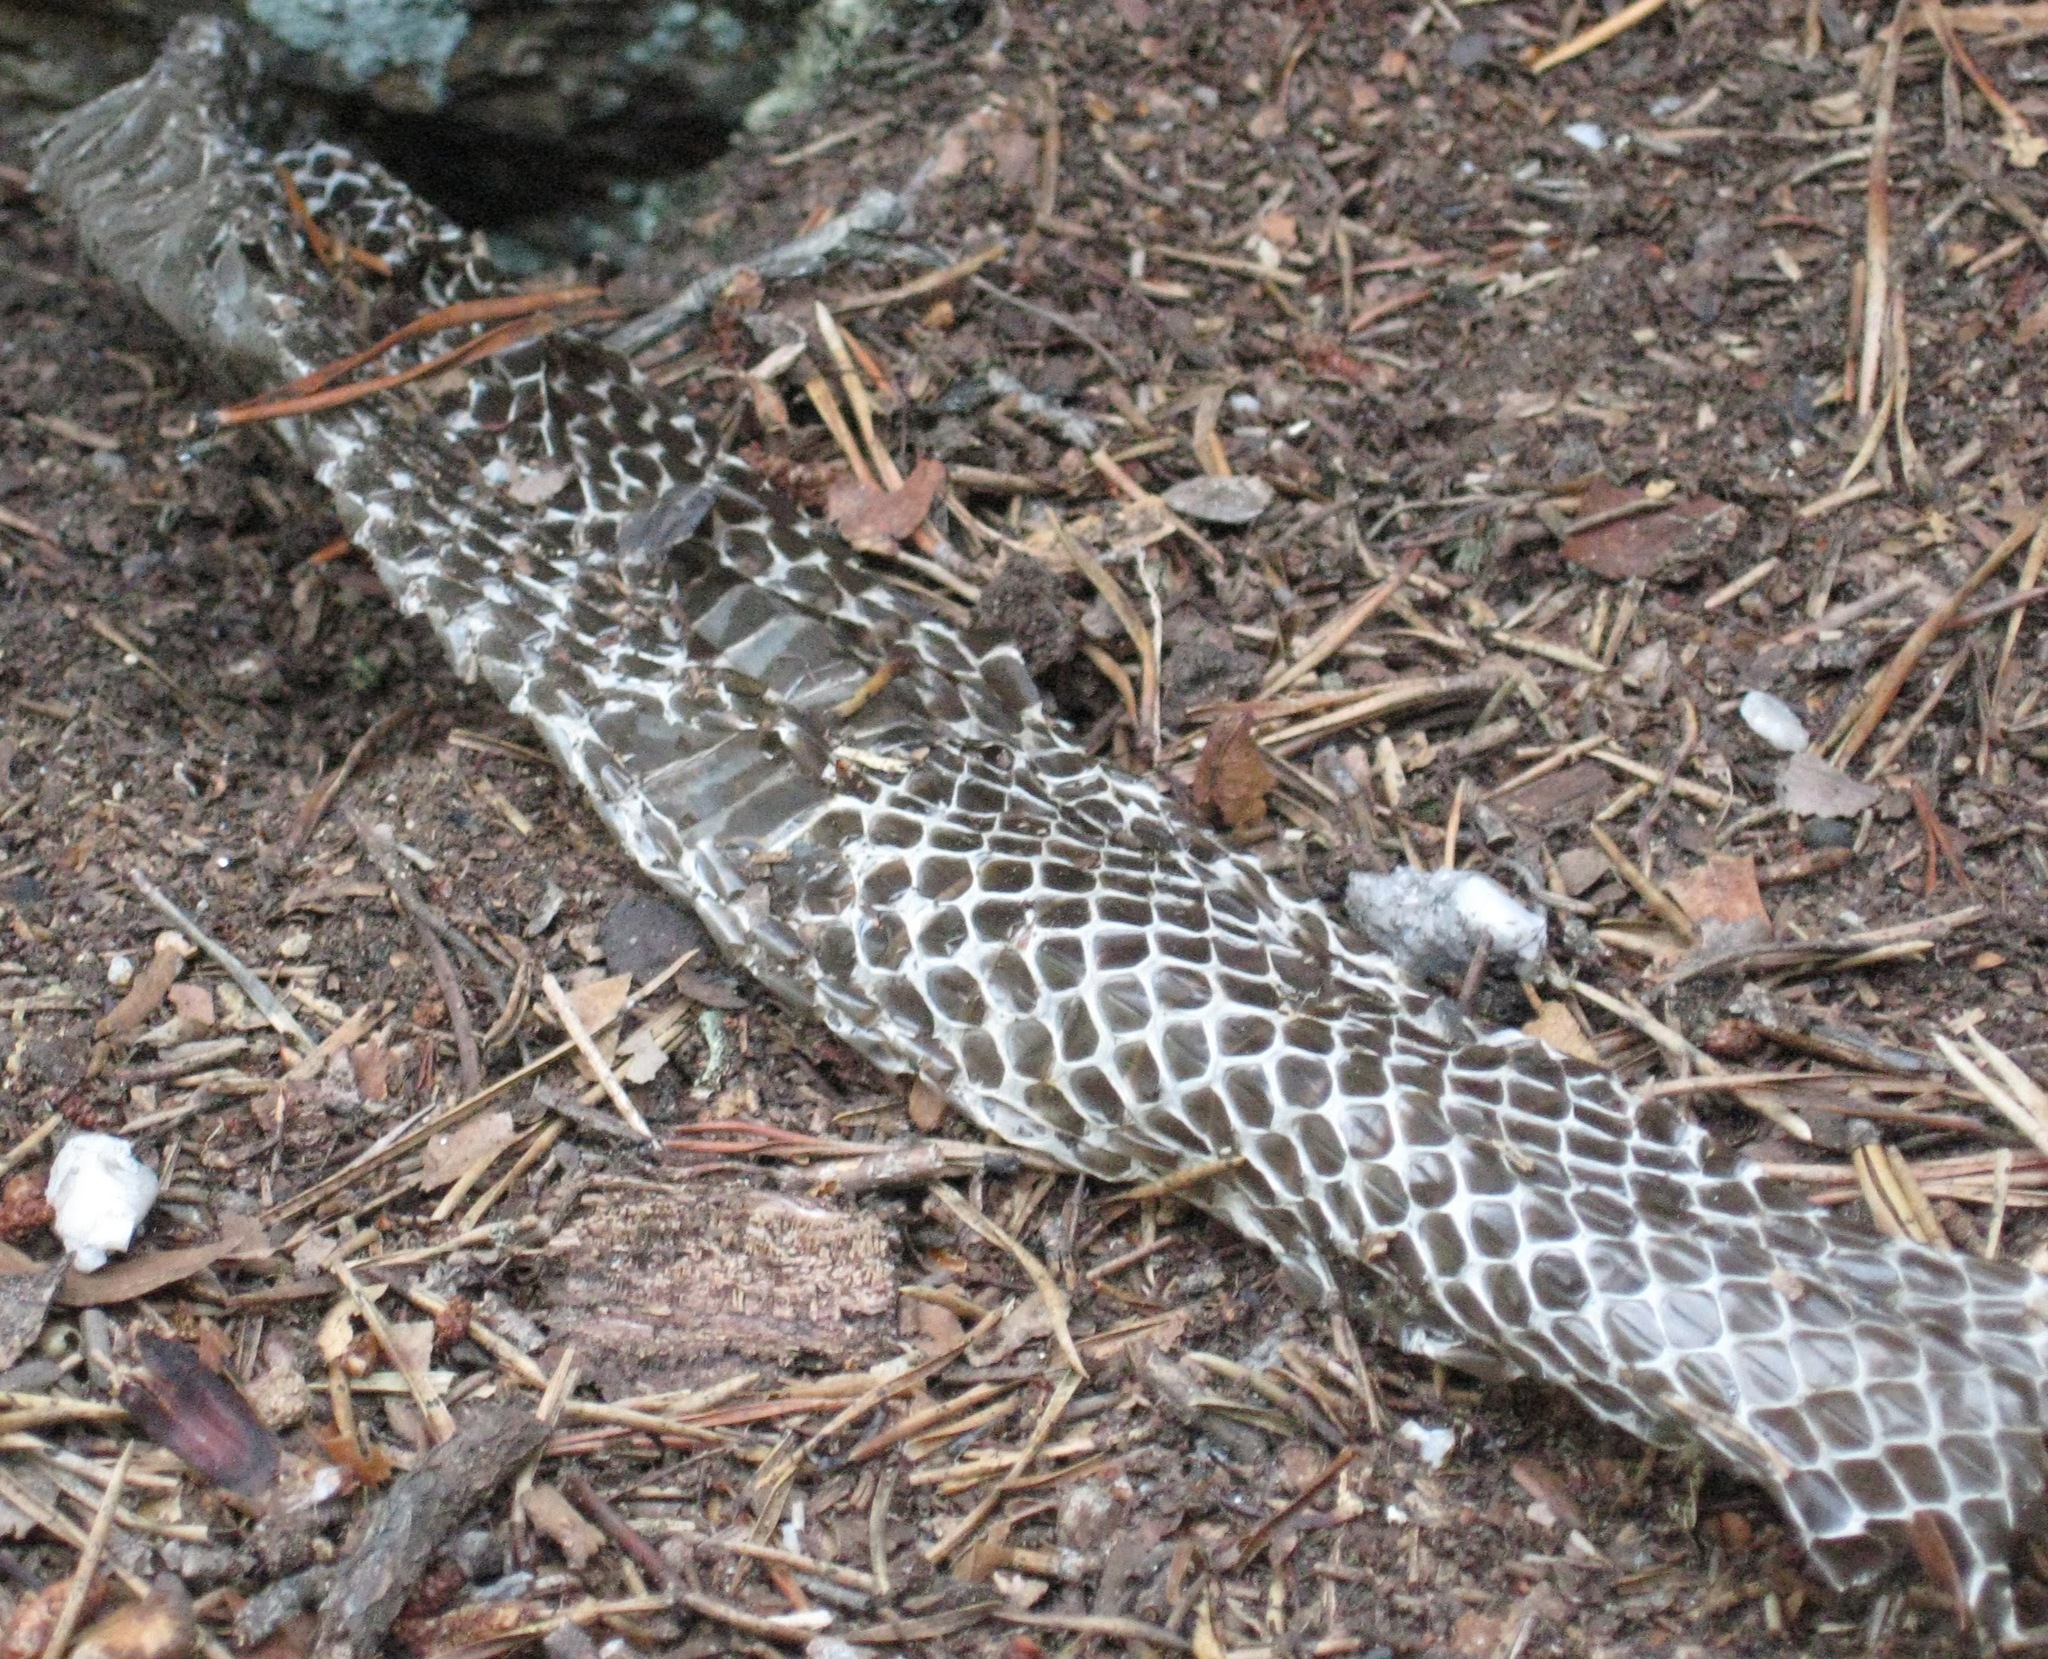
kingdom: Animalia
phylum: Chordata
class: Squamata
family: Colubridae
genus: Pantherophis
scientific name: Pantherophis
